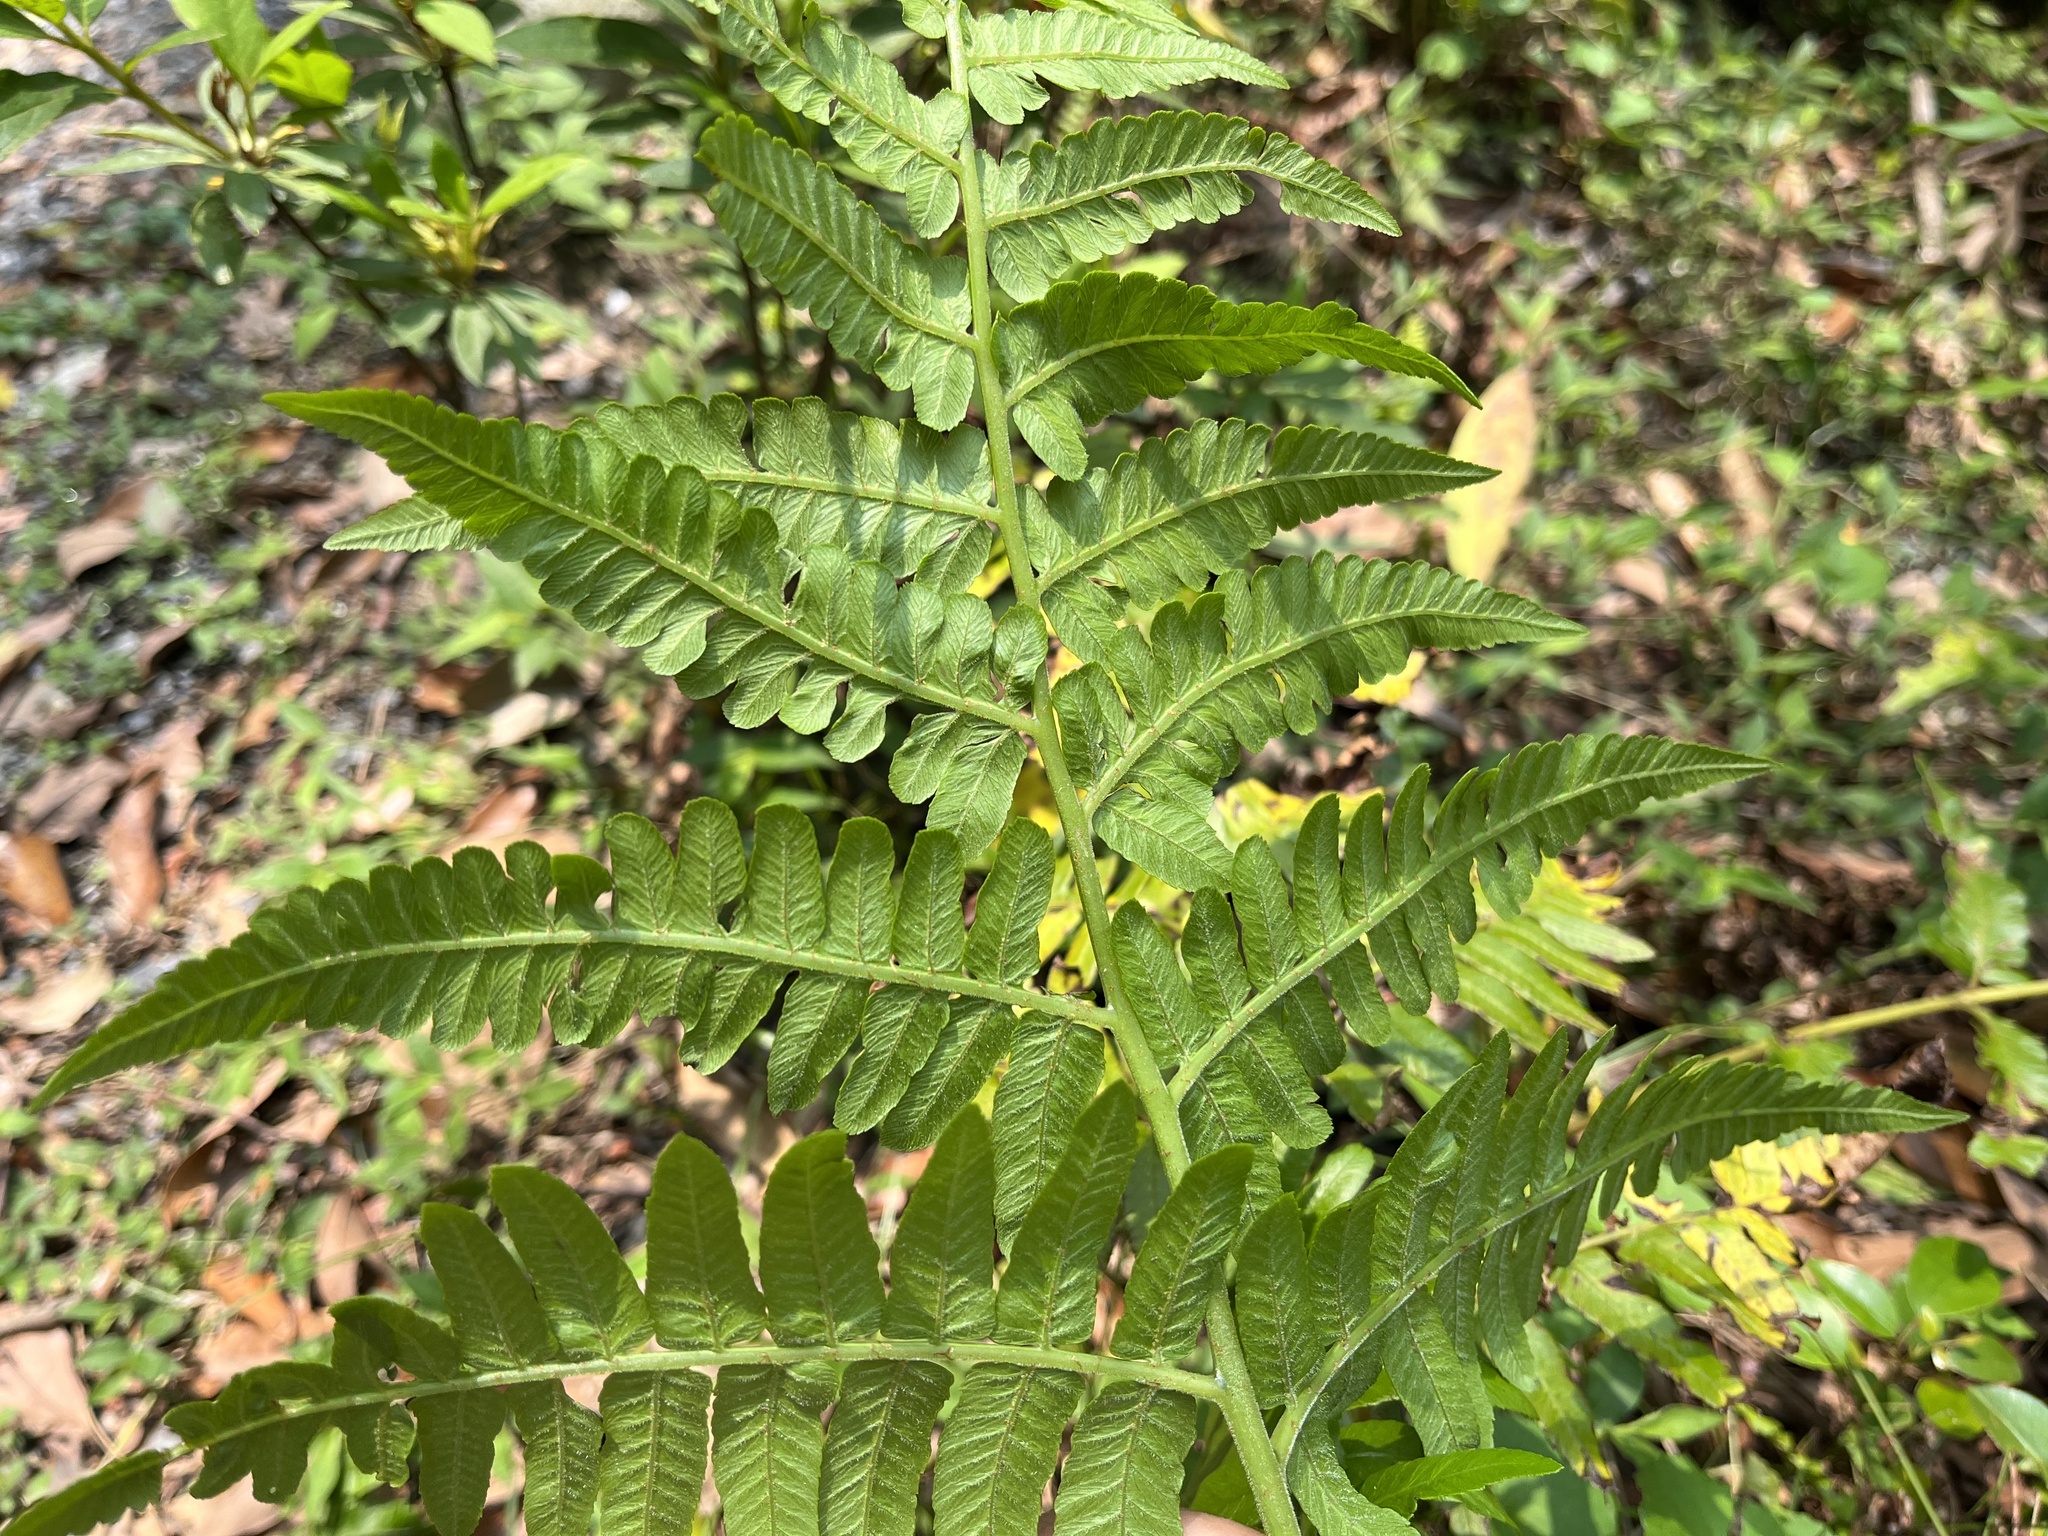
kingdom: Plantae
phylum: Tracheophyta
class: Polypodiopsida
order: Polypodiales
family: Athyriaceae
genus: Diplazium
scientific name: Diplazium esculentum
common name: Vegetable fern
